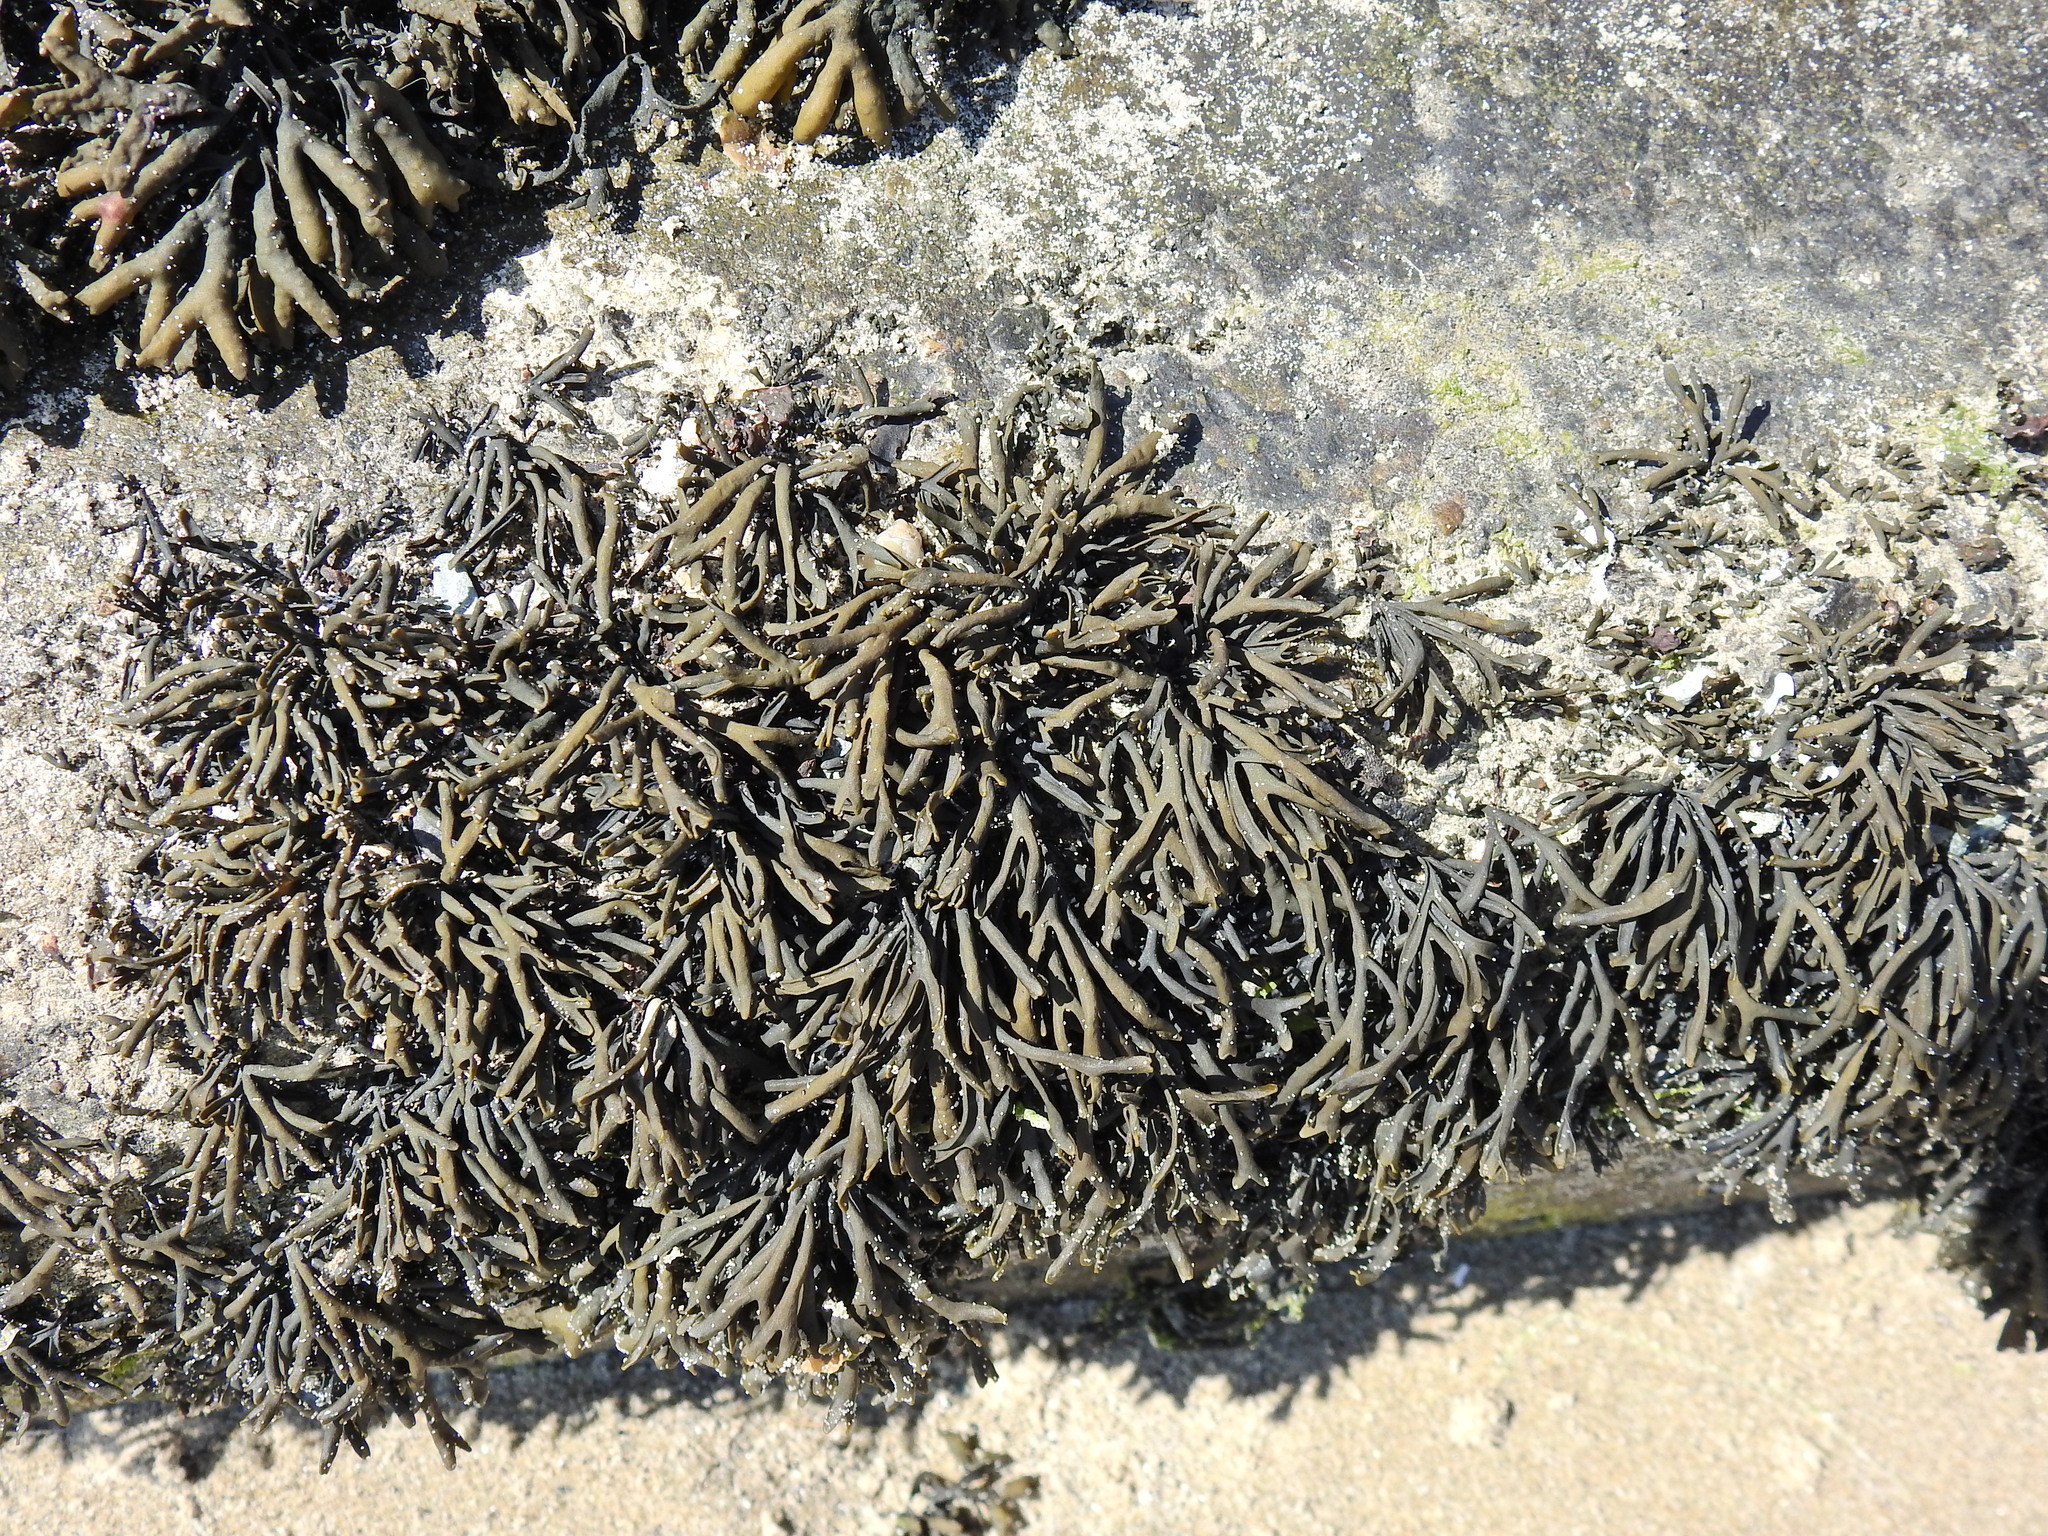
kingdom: Chromista
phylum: Ochrophyta
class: Phaeophyceae
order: Fucales
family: Fucaceae
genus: Pelvetia
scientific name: Pelvetia canaliculata
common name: Channelled wrack
